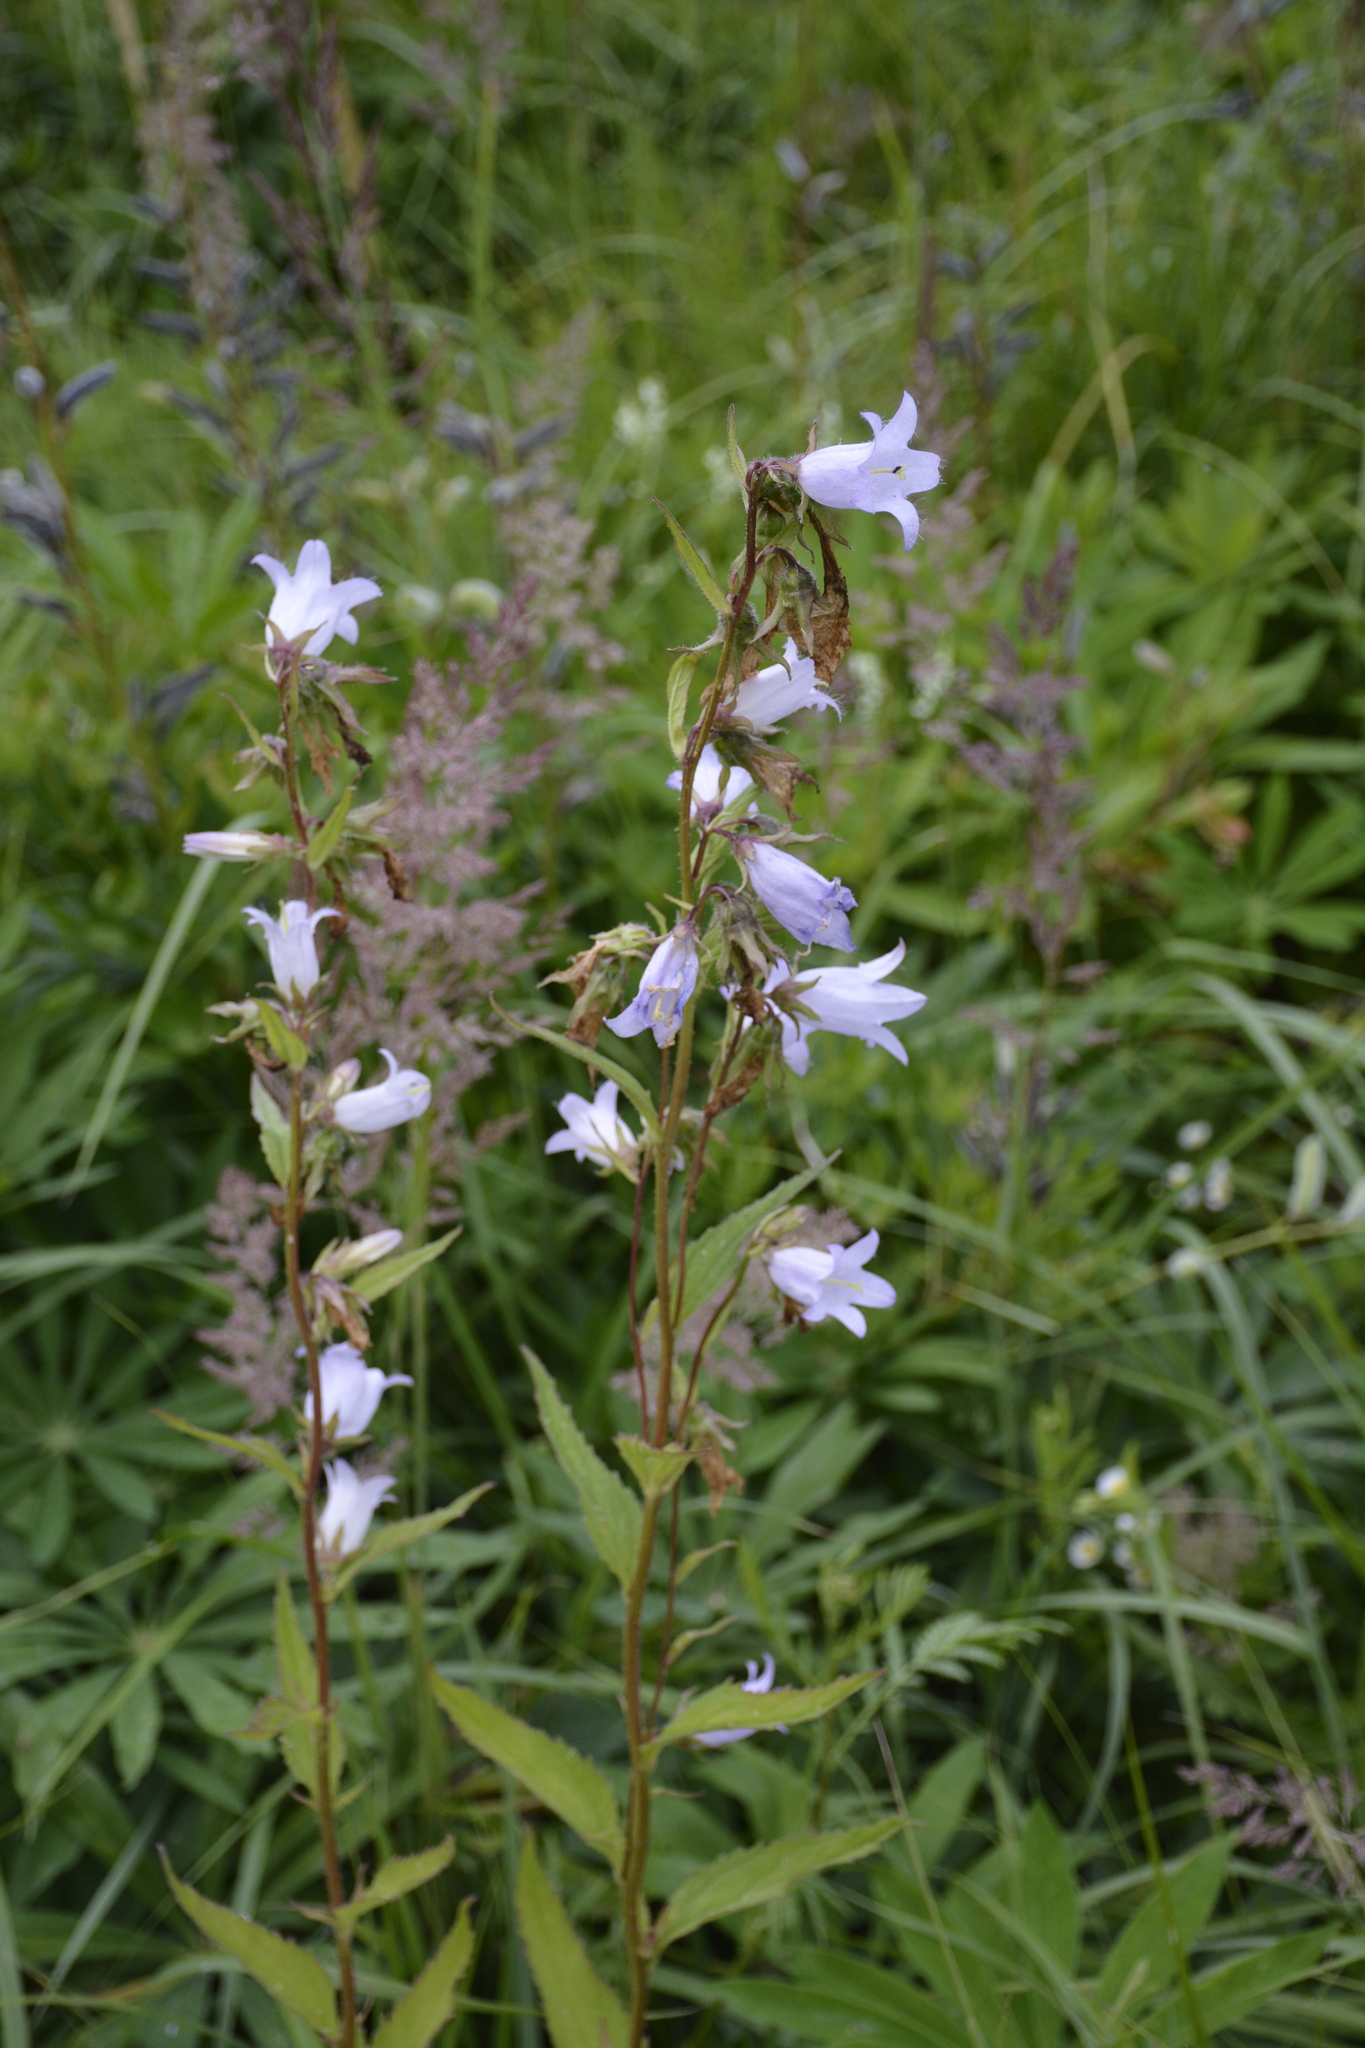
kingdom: Plantae
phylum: Tracheophyta
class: Magnoliopsida
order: Asterales
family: Campanulaceae
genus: Campanula
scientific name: Campanula trachelium
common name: Nettle-leaved bellflower
